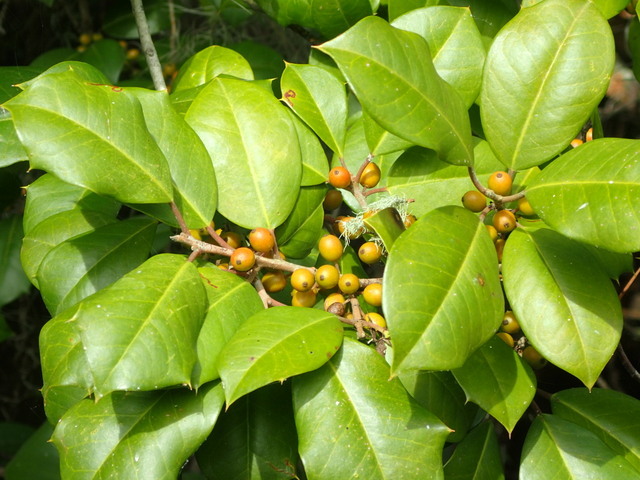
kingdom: Plantae
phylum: Tracheophyta
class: Magnoliopsida
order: Aquifoliales
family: Aquifoliaceae
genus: Ilex
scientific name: Ilex opaca
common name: American holly
